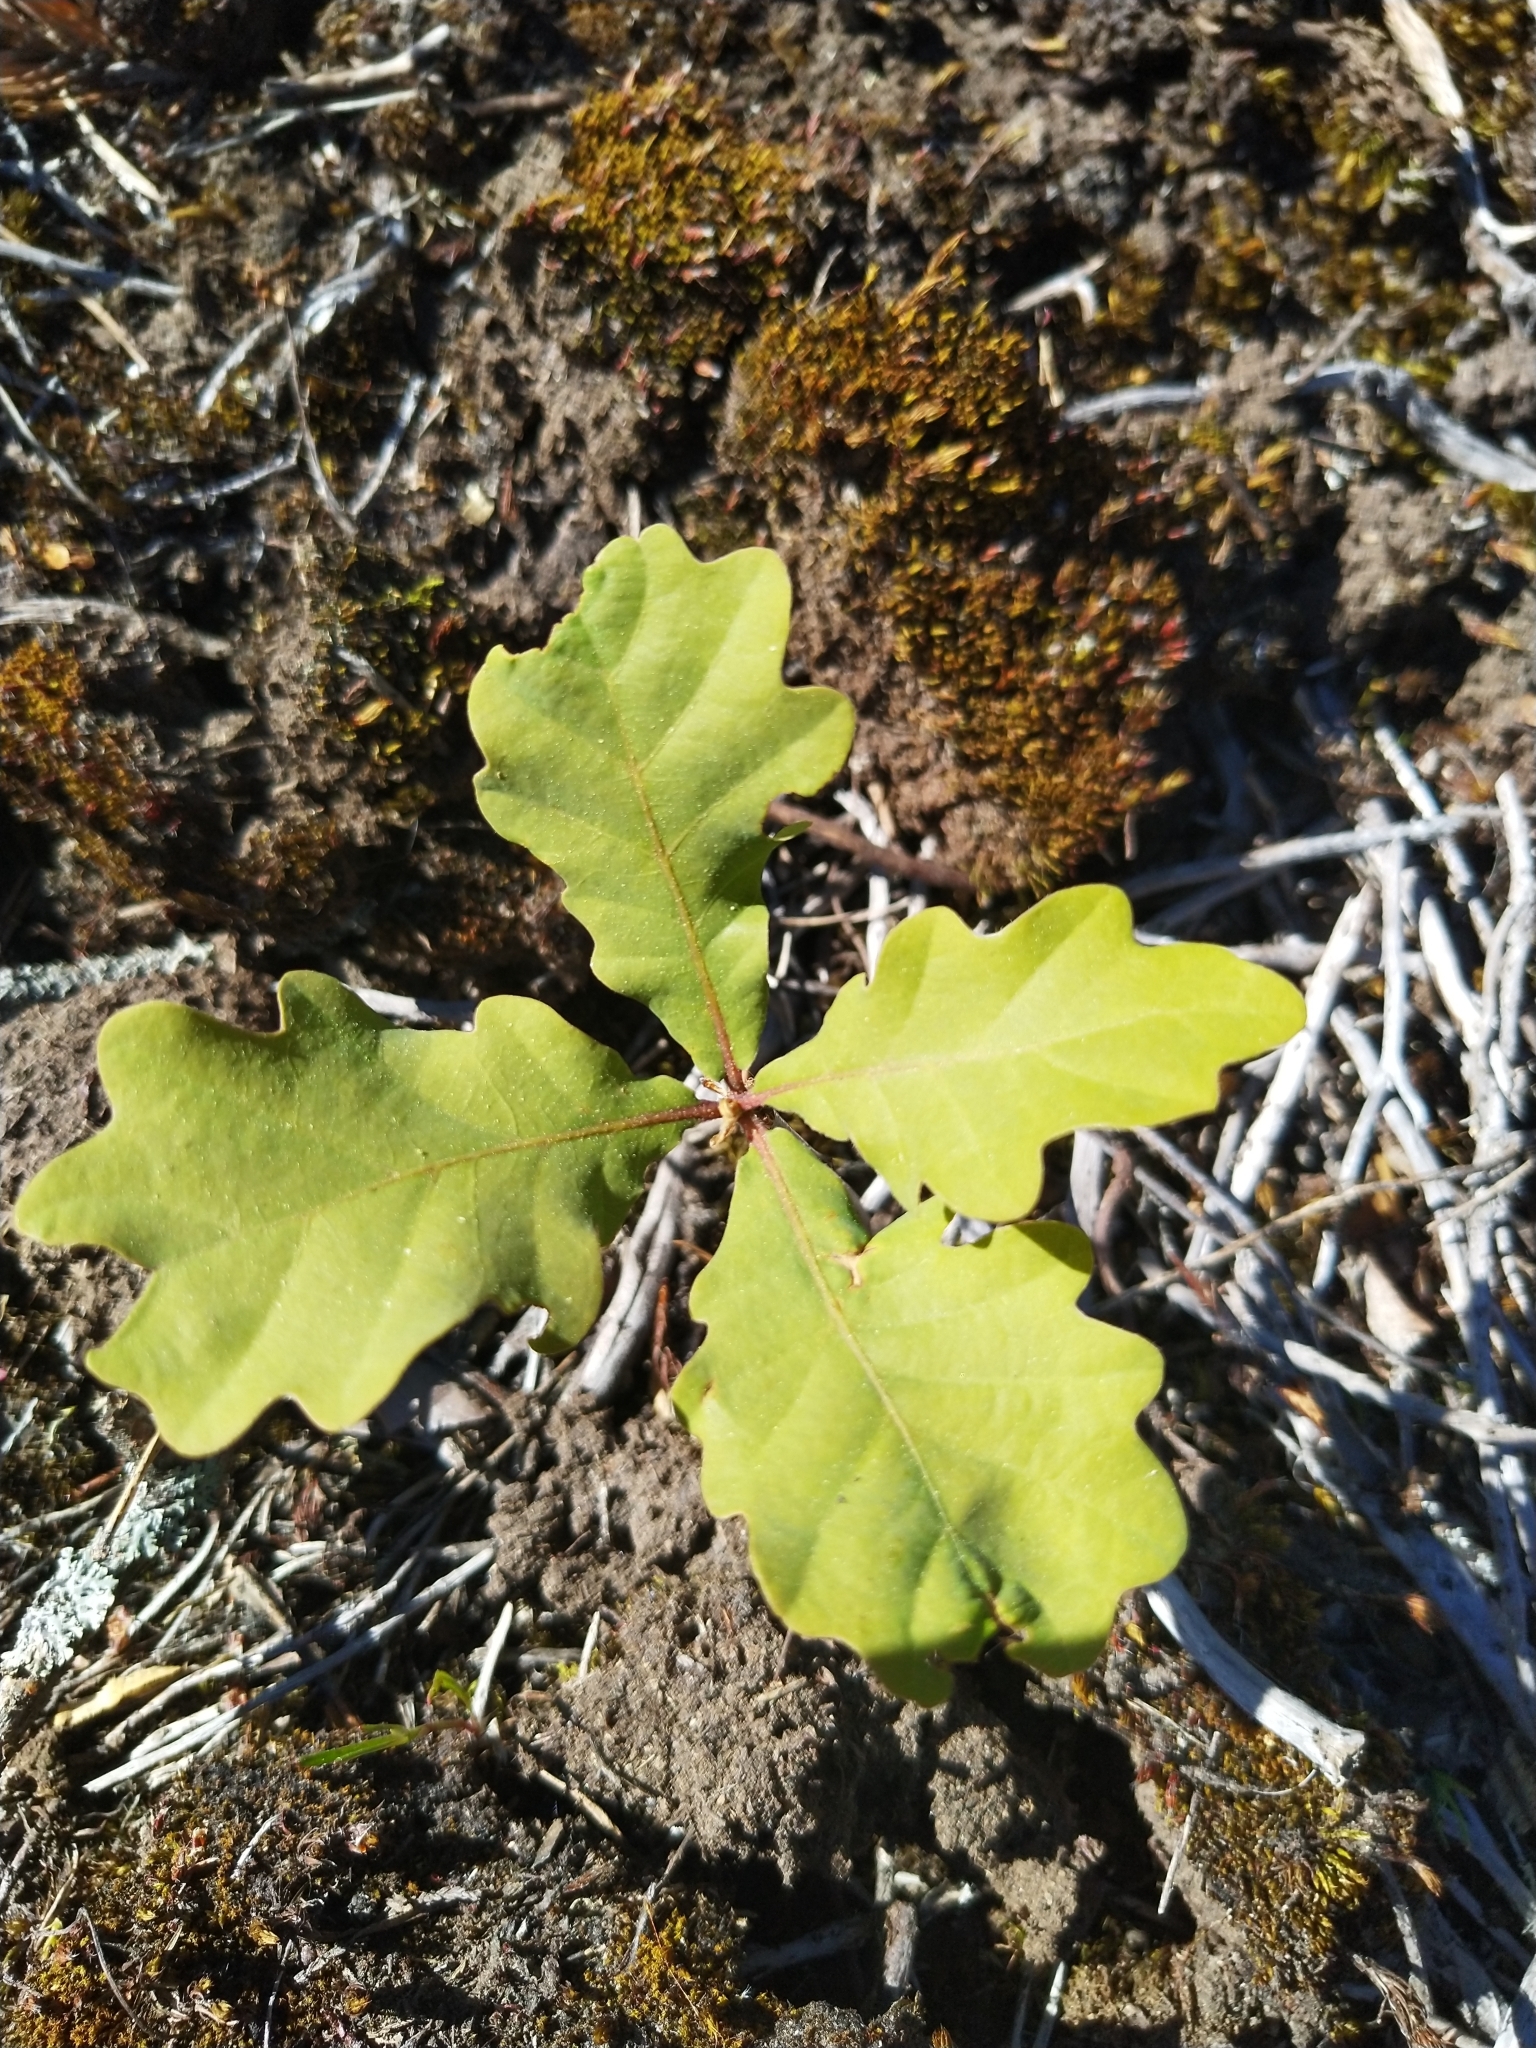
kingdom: Plantae
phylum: Tracheophyta
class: Magnoliopsida
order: Fagales
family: Fagaceae
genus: Quercus
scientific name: Quercus robur
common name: Pedunculate oak
